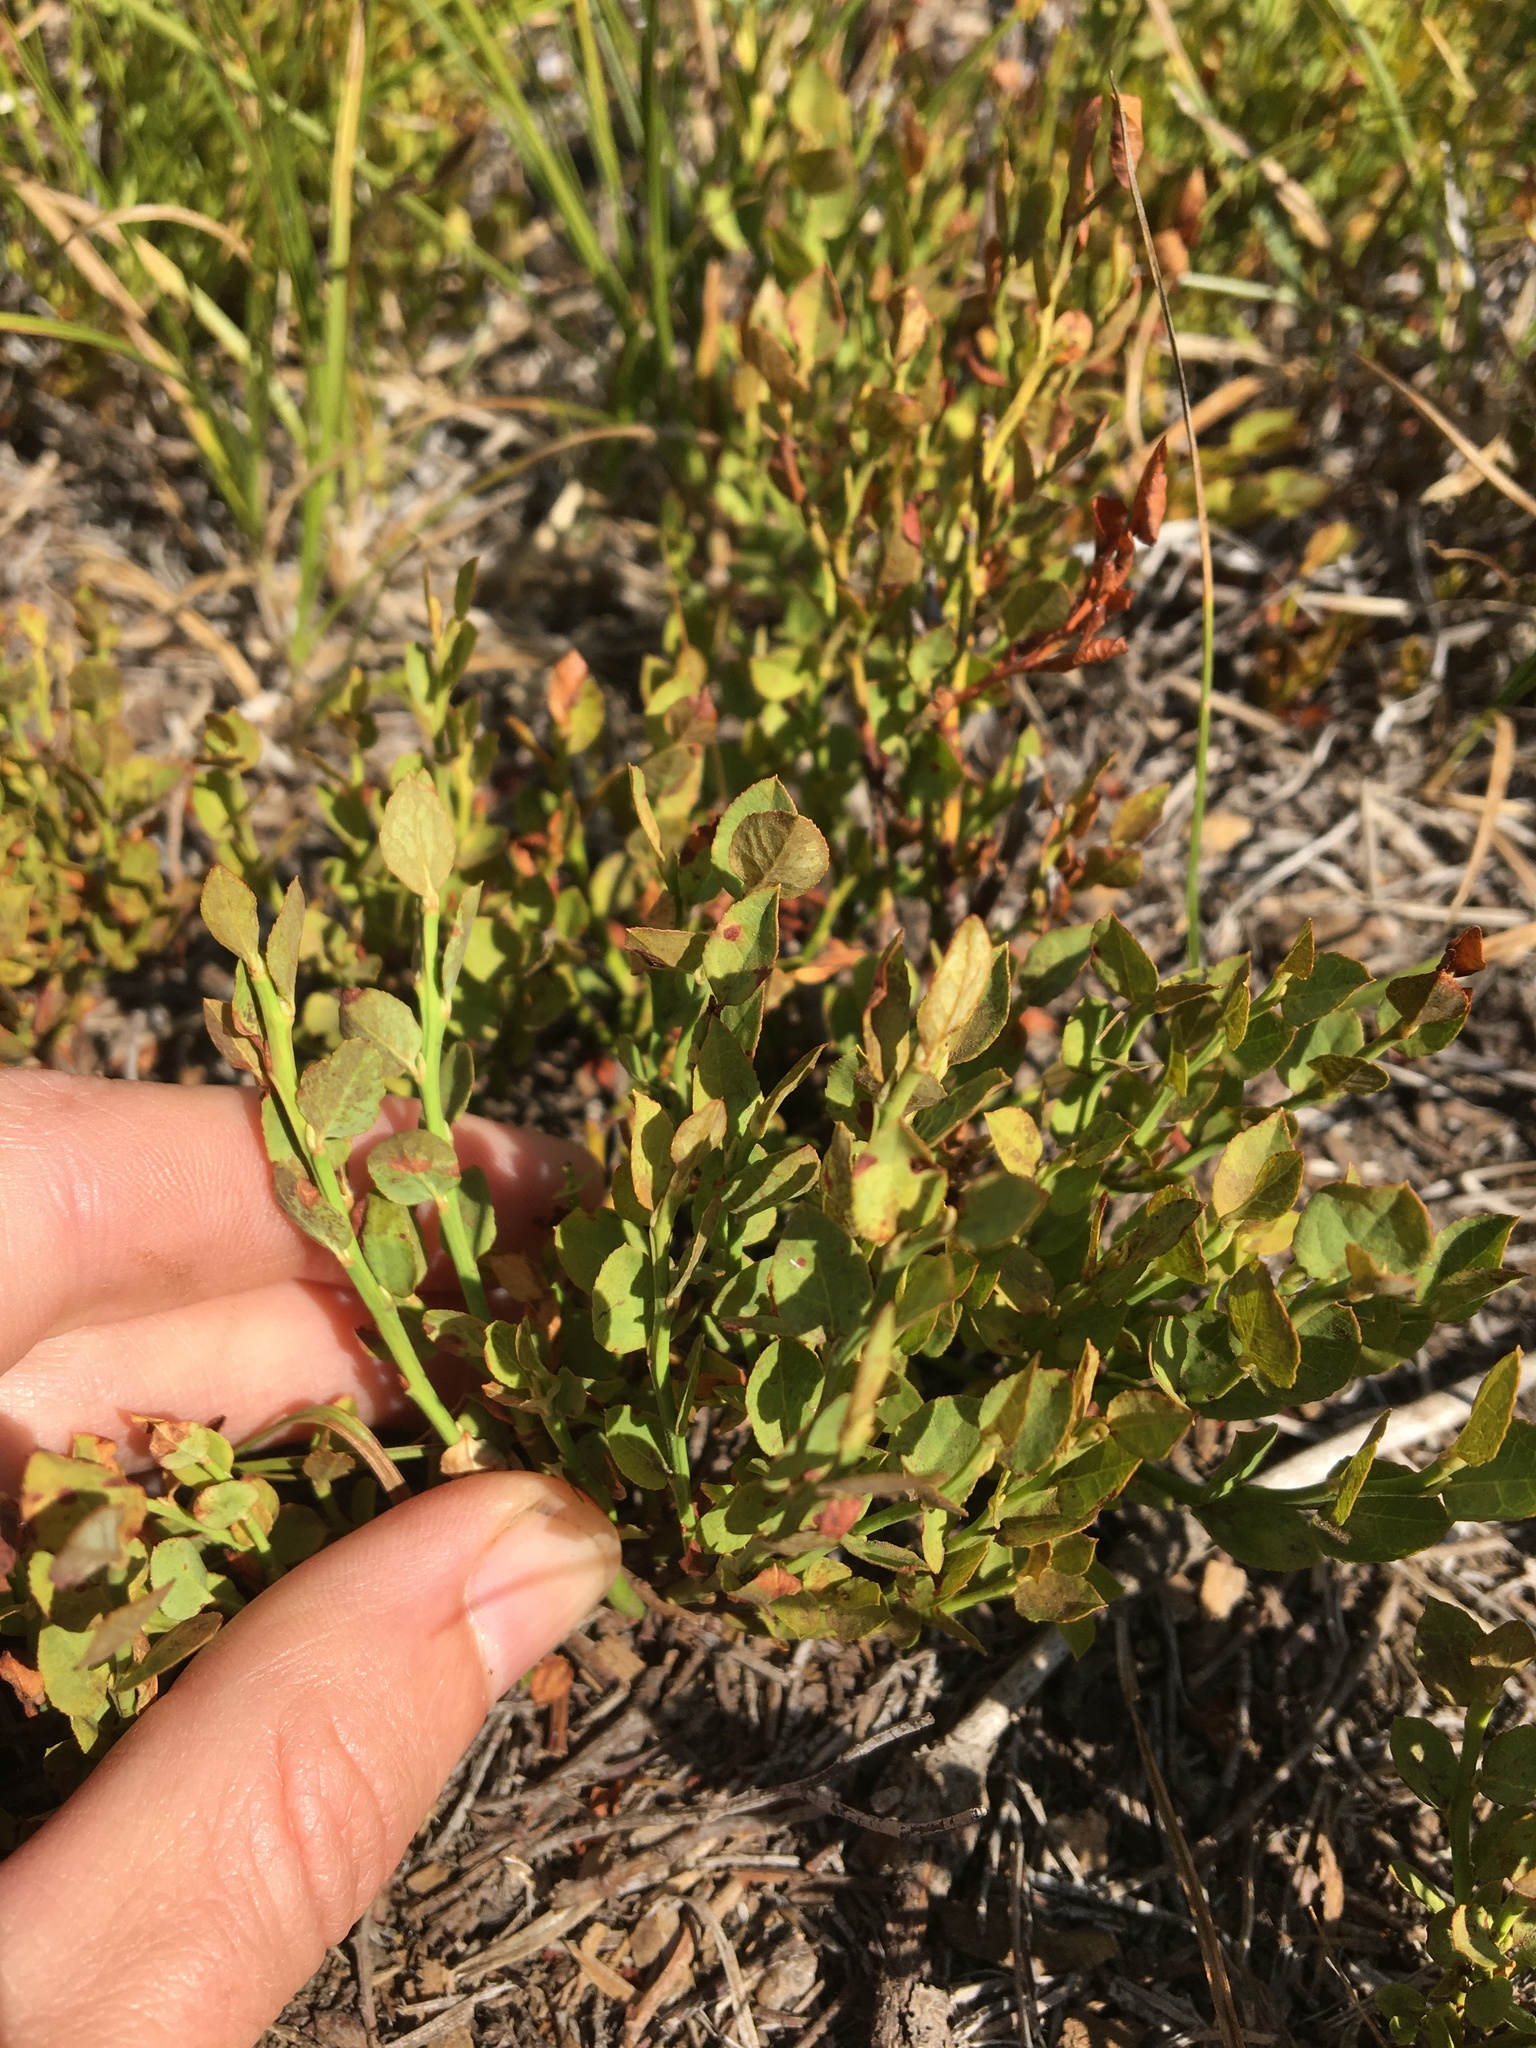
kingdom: Plantae
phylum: Tracheophyta
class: Magnoliopsida
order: Ericales
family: Ericaceae
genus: Vaccinium
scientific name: Vaccinium scoparium
